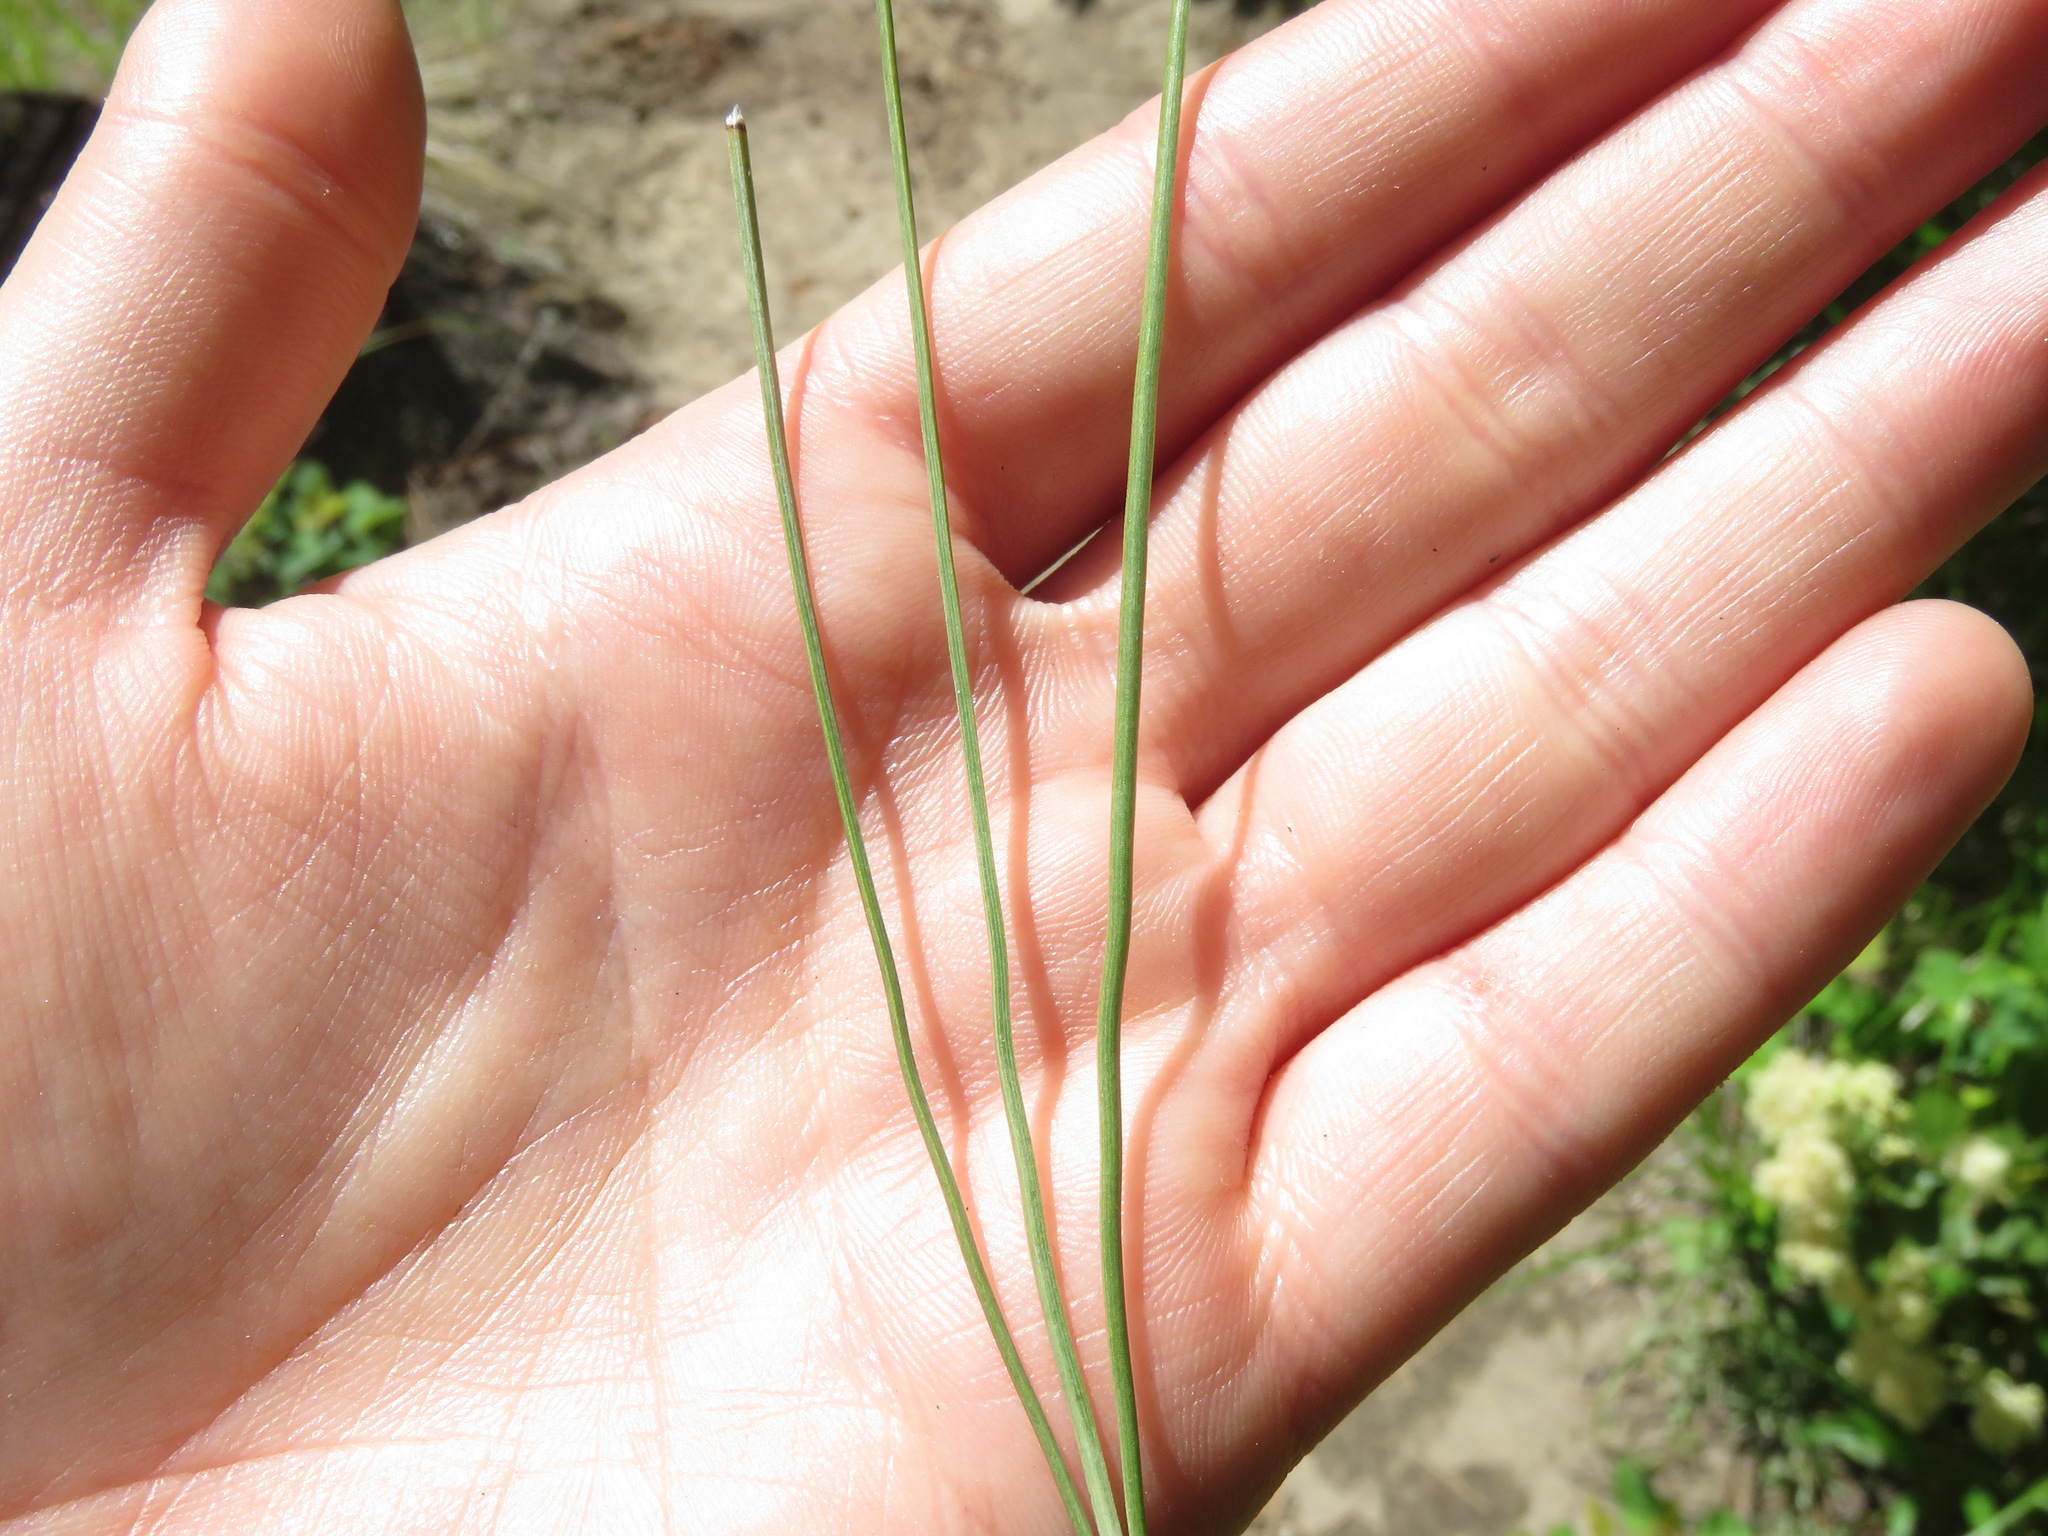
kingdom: Plantae
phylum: Tracheophyta
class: Pinopsida
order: Pinales
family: Pinaceae
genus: Pinus
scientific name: Pinus ponderosa
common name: Western yellow-pine
